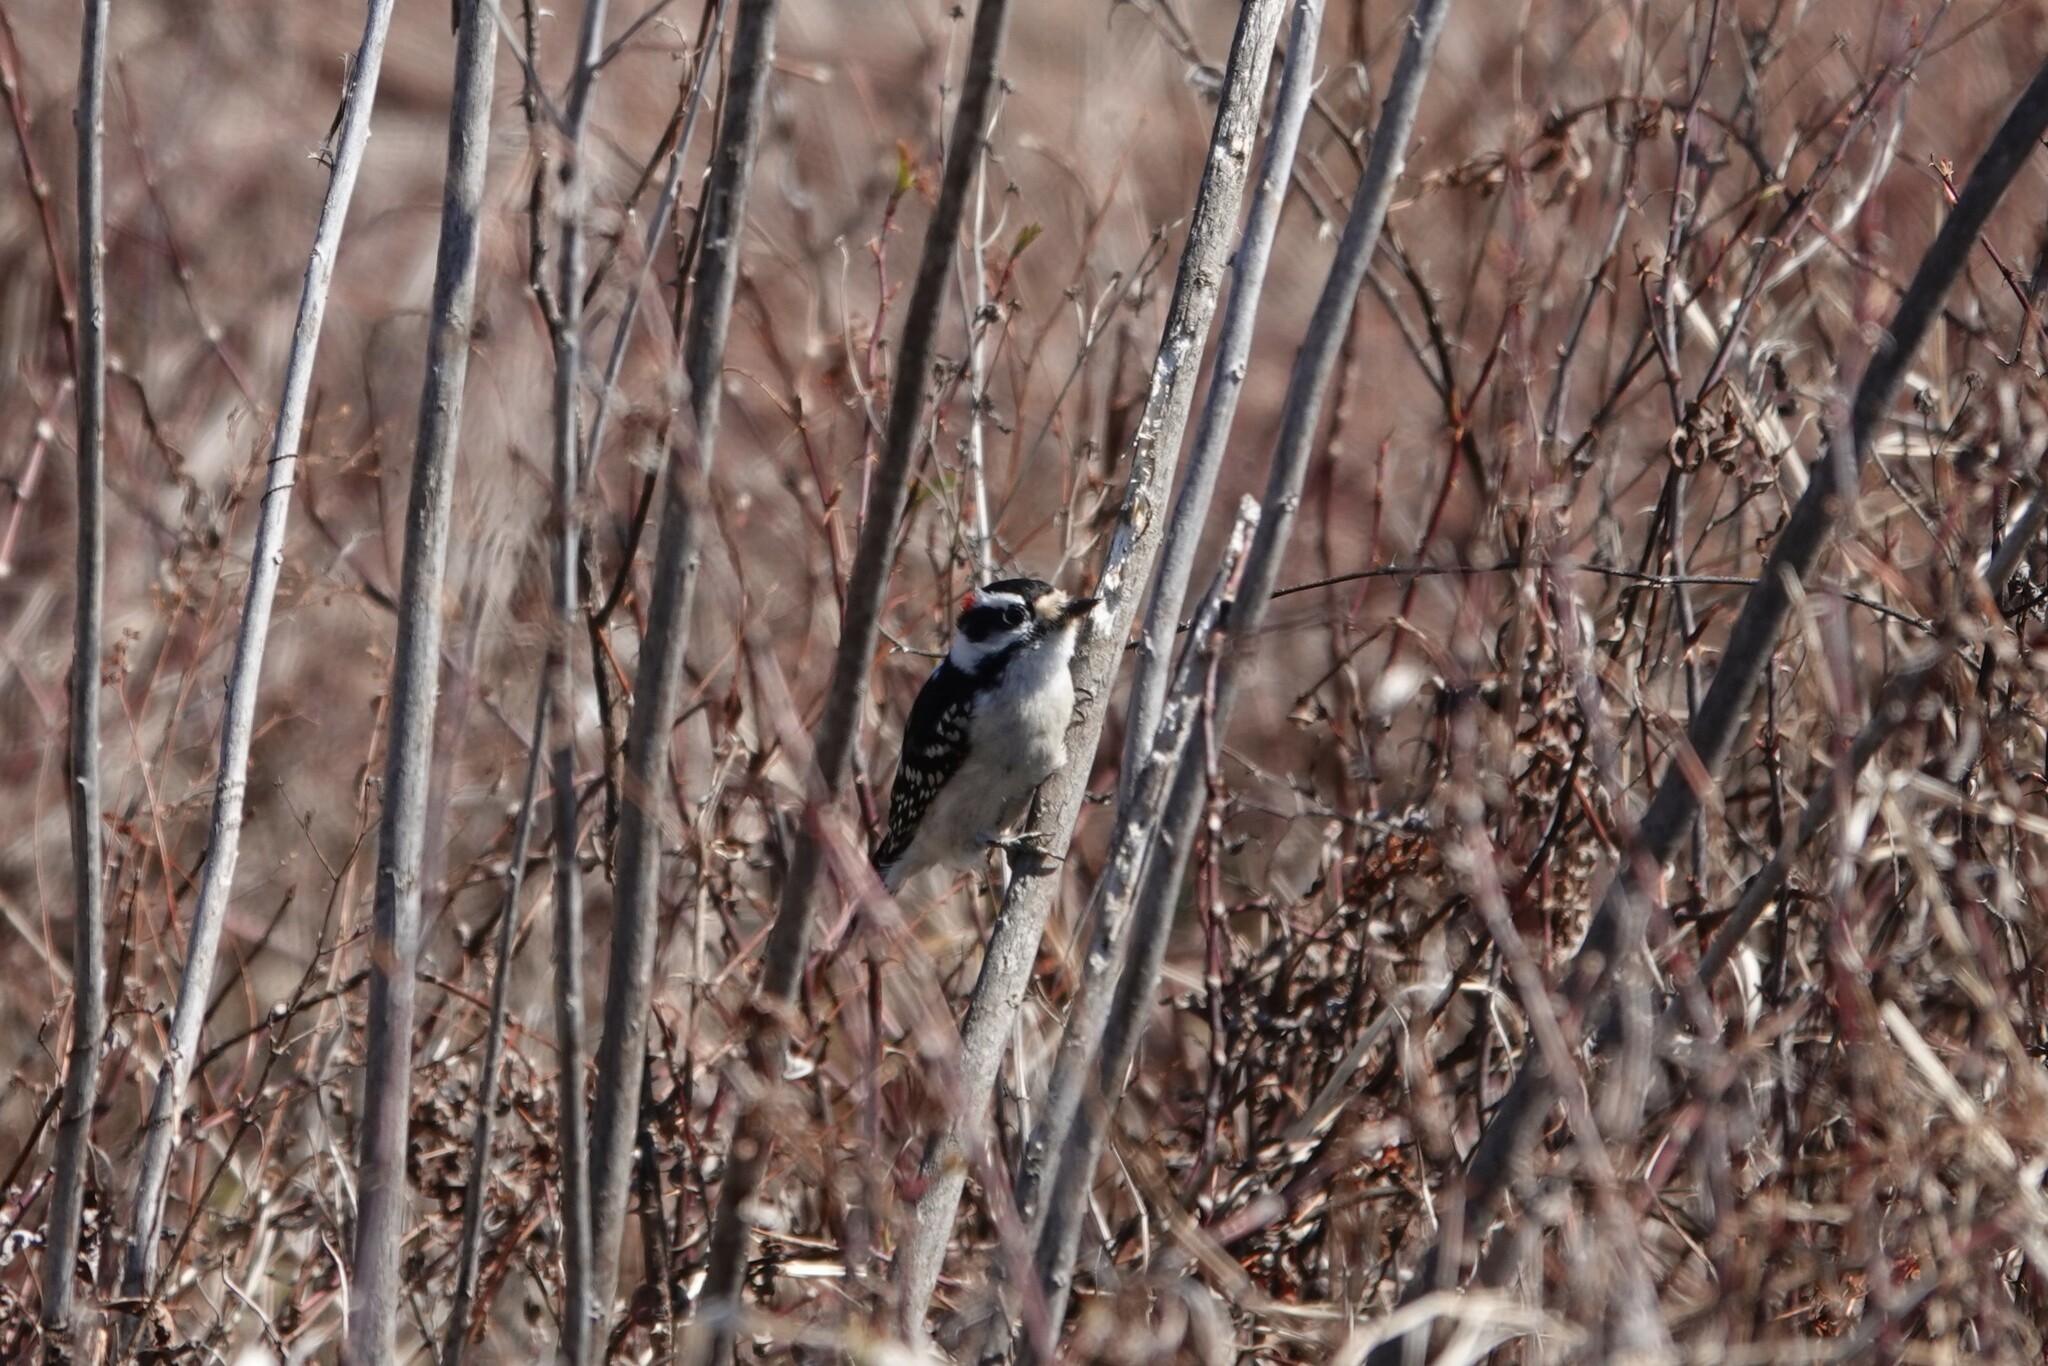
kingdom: Animalia
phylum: Chordata
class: Aves
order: Piciformes
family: Picidae
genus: Dryobates
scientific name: Dryobates pubescens
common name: Downy woodpecker
